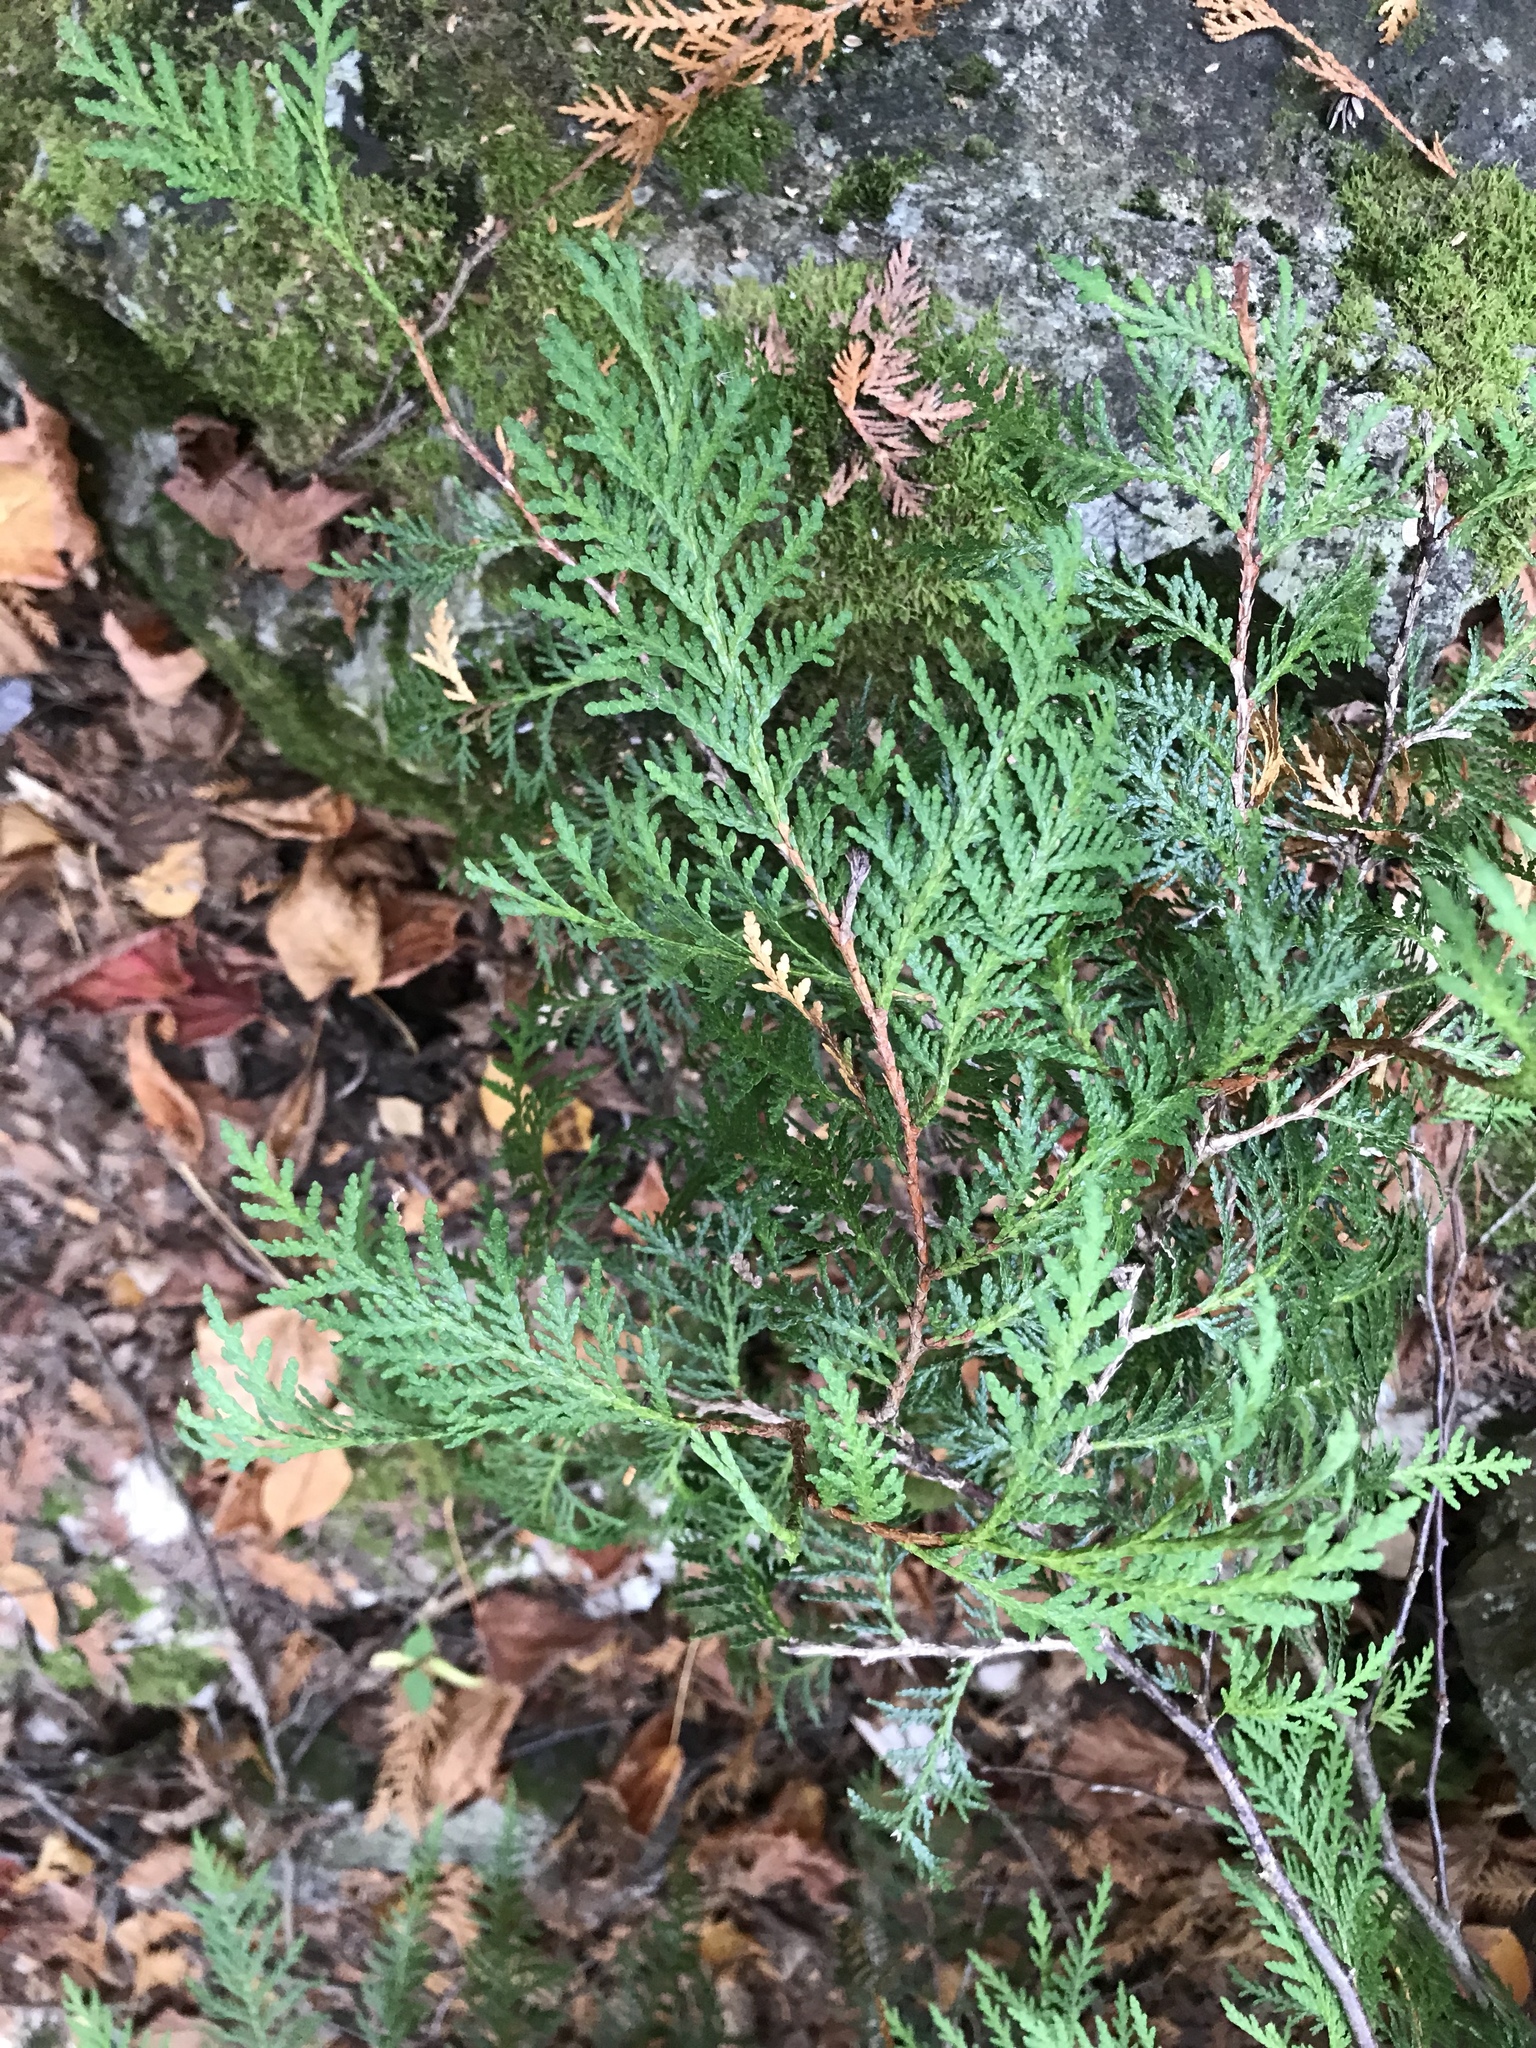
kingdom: Plantae
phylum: Tracheophyta
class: Pinopsida
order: Pinales
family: Cupressaceae
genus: Thuja
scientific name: Thuja occidentalis
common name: Northern white-cedar
